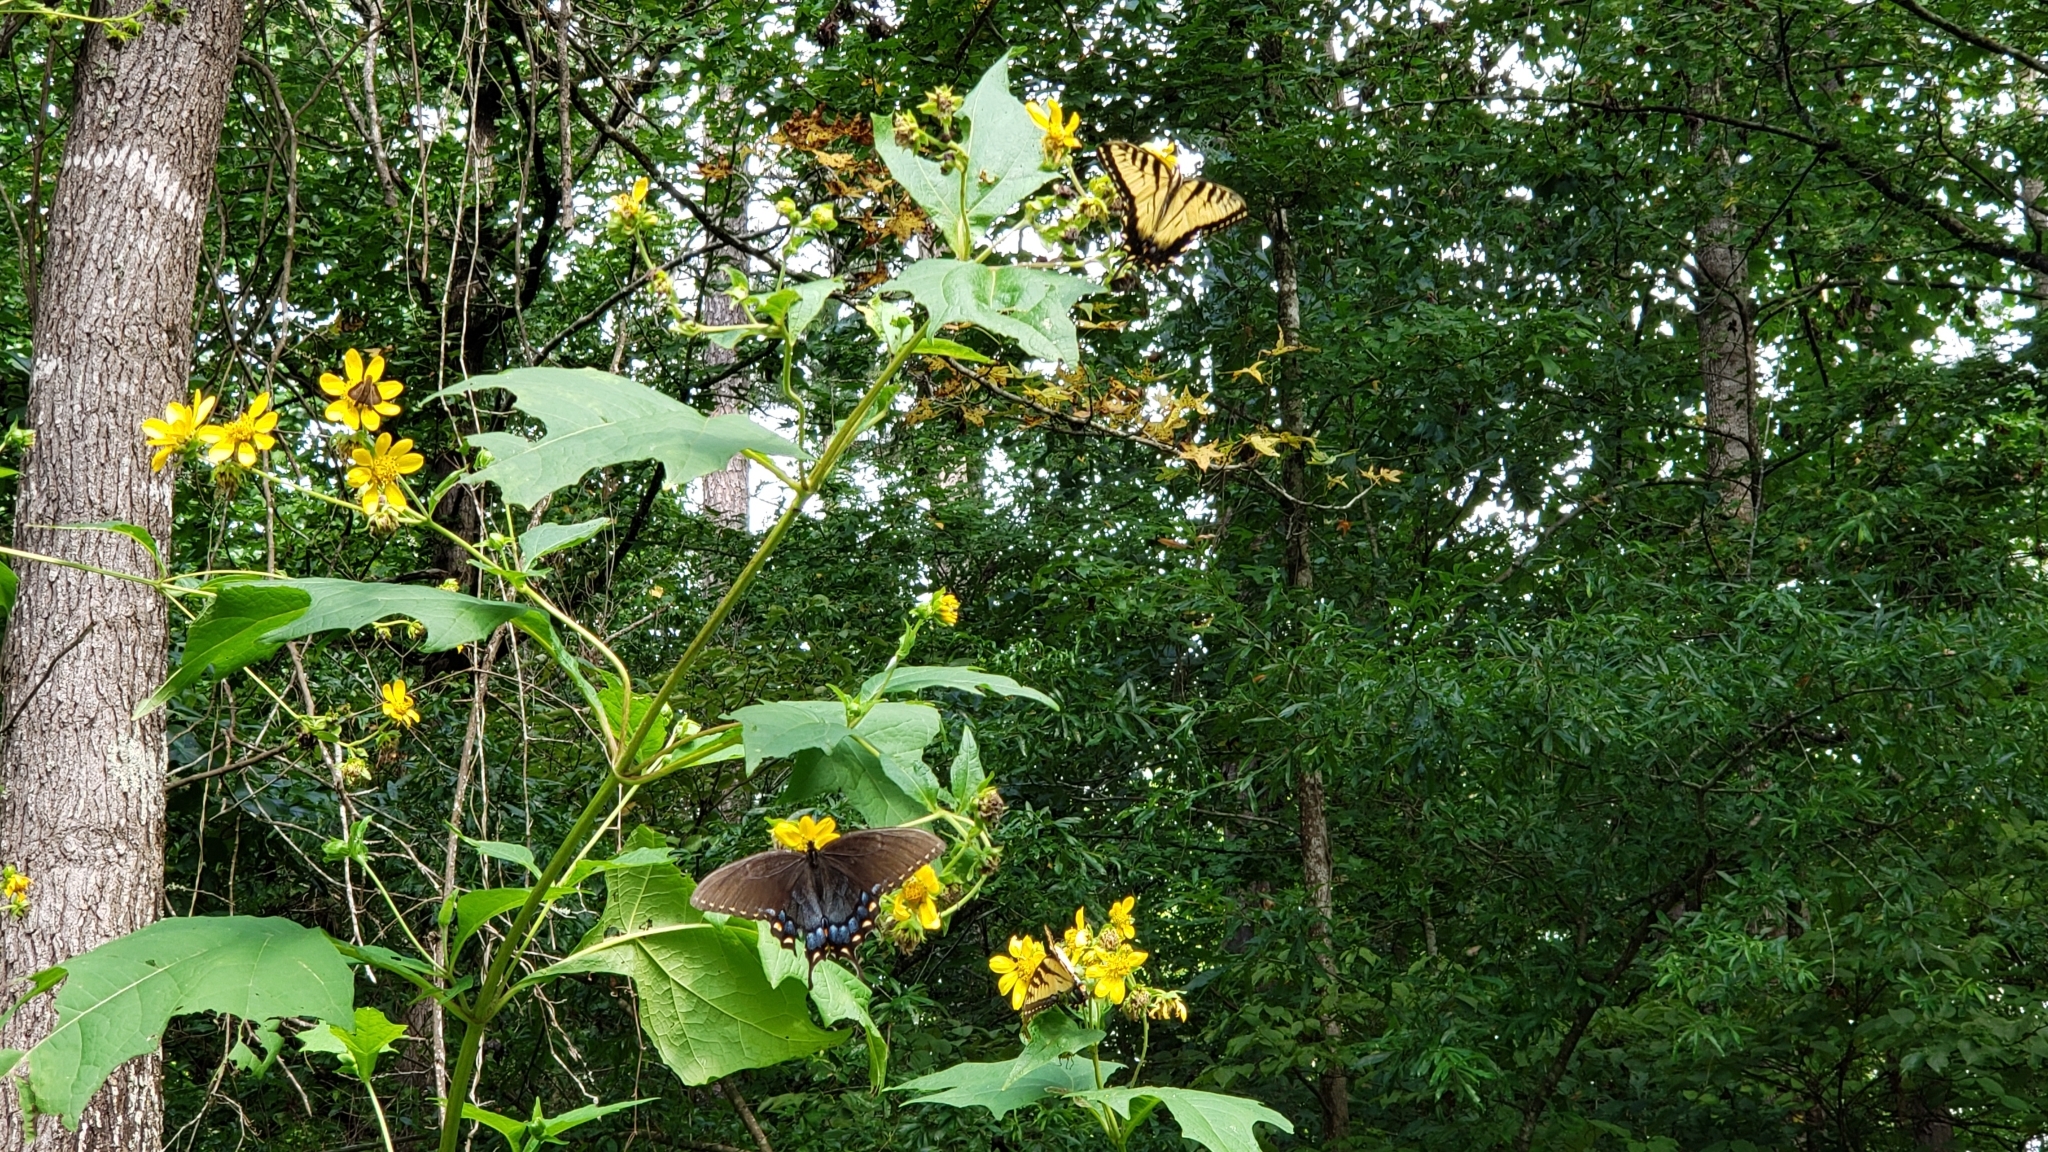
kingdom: Animalia
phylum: Arthropoda
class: Insecta
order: Lepidoptera
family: Papilionidae
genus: Papilio
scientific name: Papilio glaucus
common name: Tiger swallowtail
